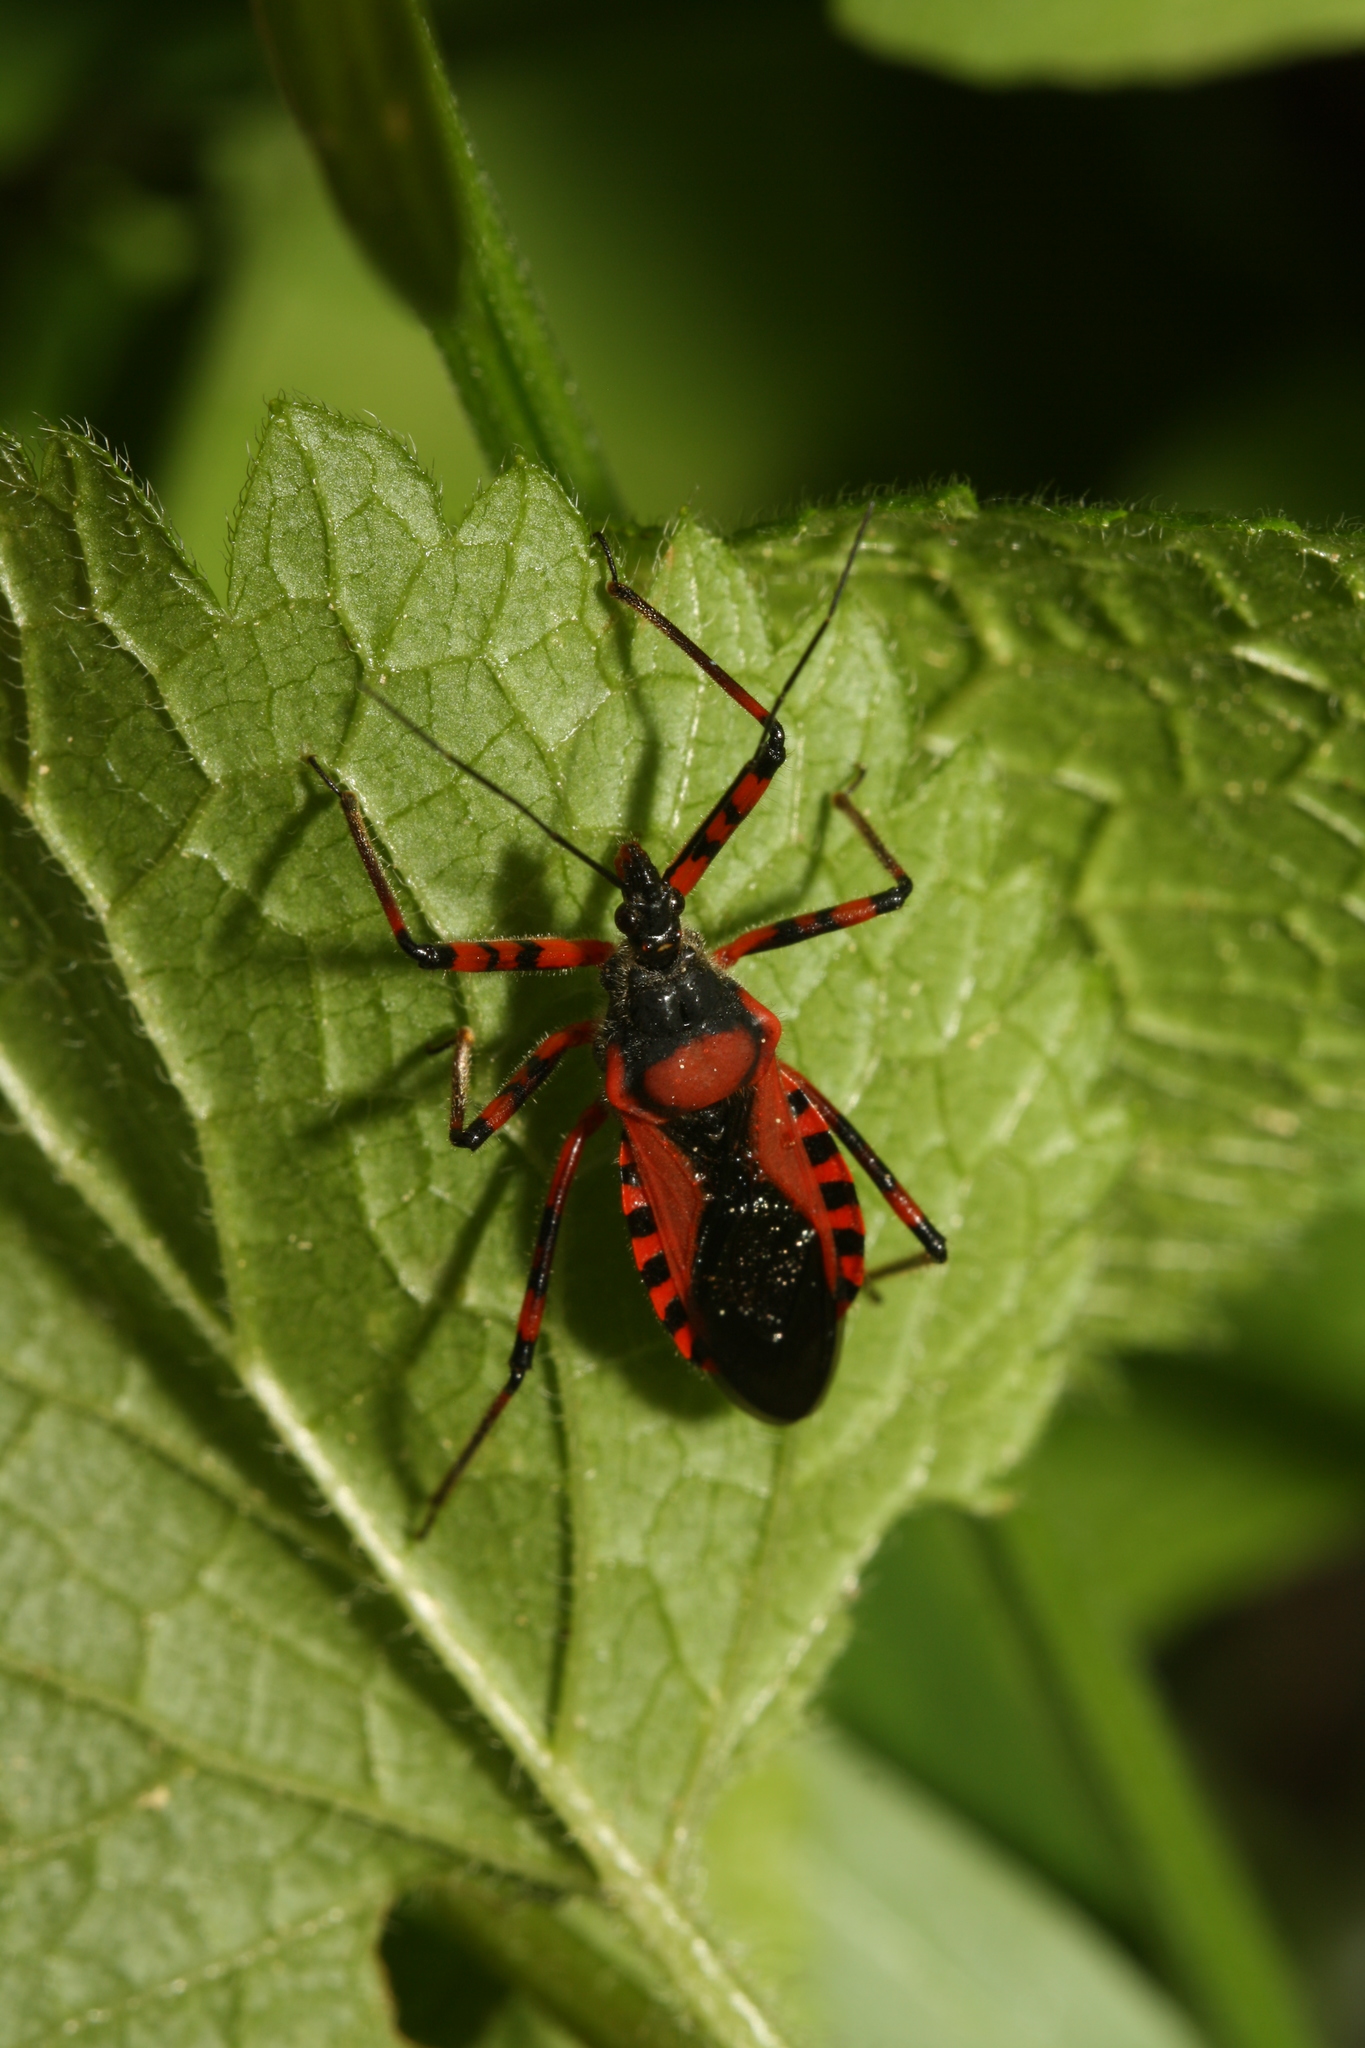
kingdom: Animalia
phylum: Arthropoda
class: Insecta
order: Hemiptera
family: Reduviidae
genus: Rhynocoris
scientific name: Rhynocoris iracundus
